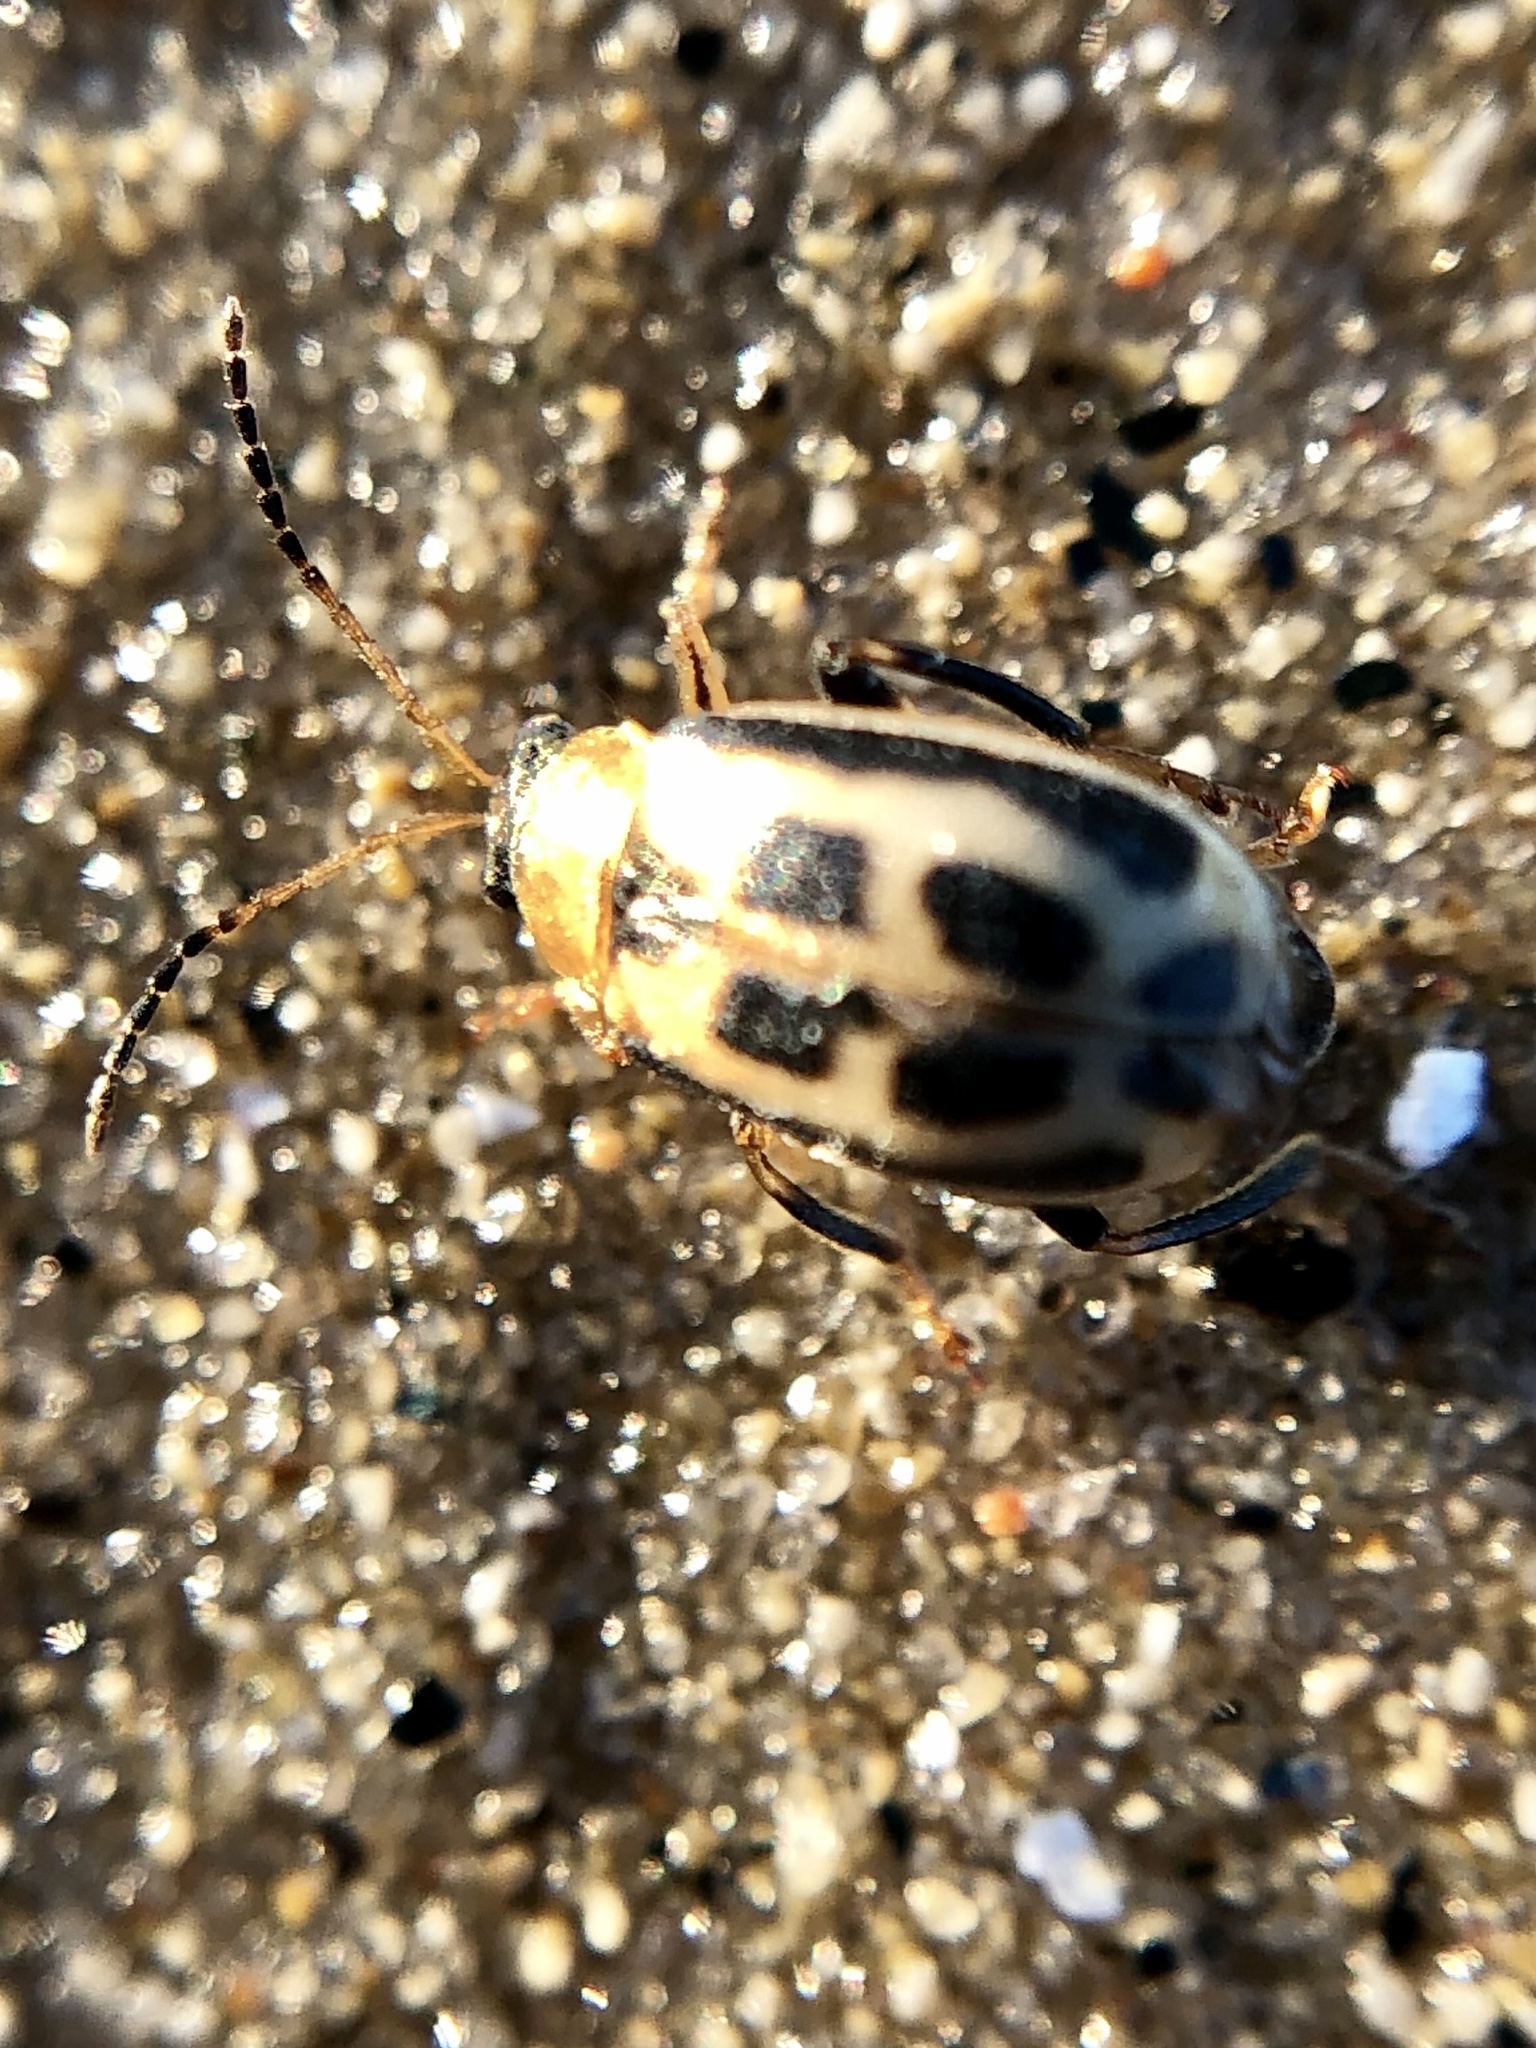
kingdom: Animalia
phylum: Arthropoda
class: Insecta
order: Coleoptera
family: Chrysomelidae
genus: Cerotoma
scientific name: Cerotoma trifurcata
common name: Bean leaf beetle
